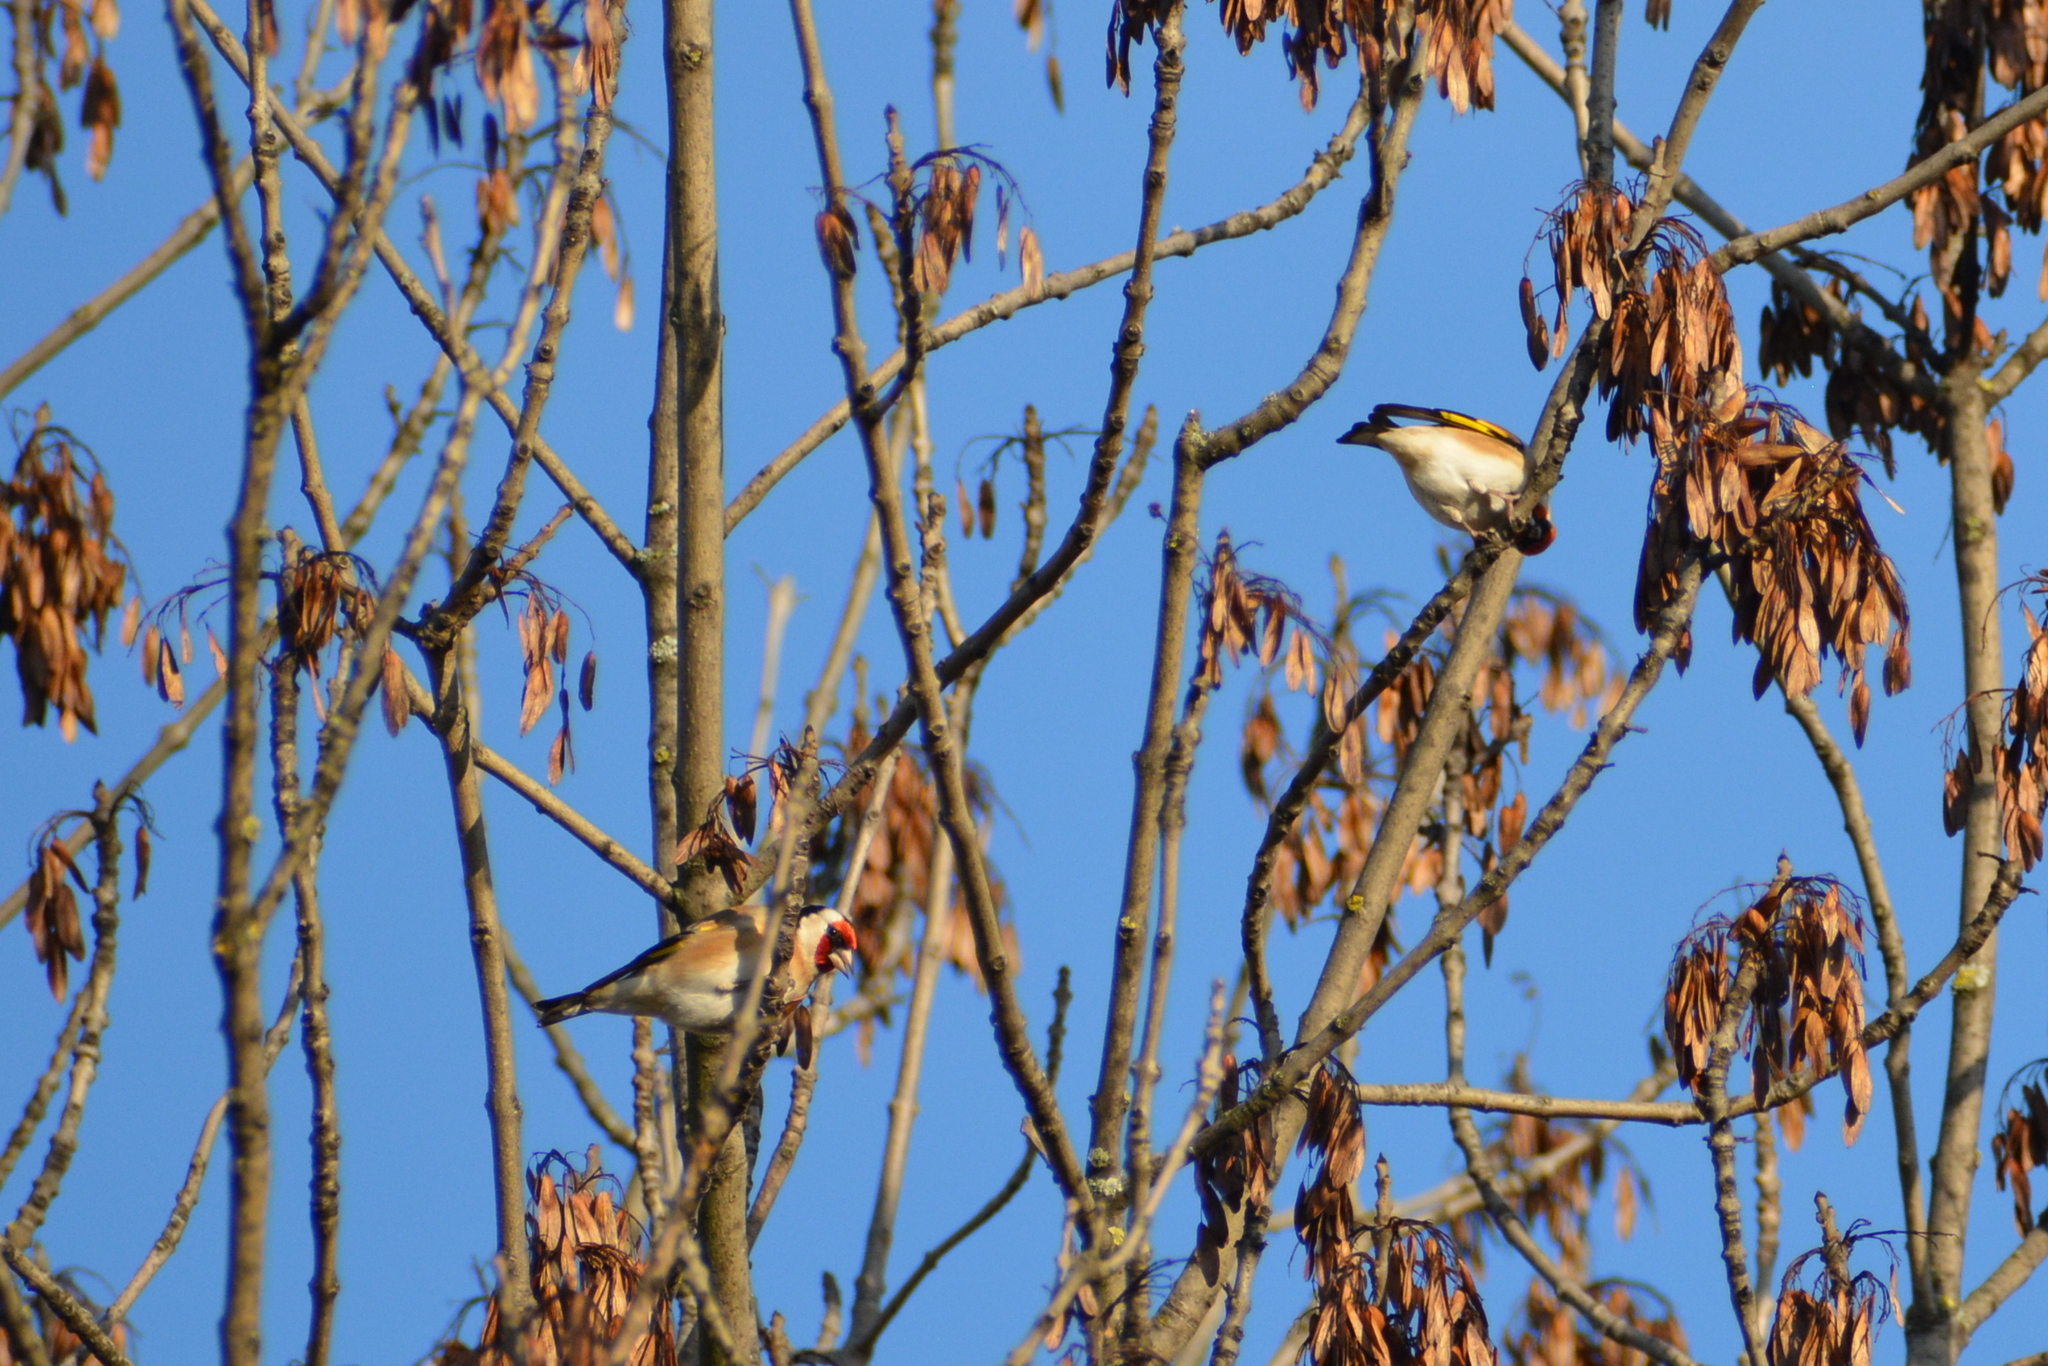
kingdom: Animalia
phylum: Chordata
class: Aves
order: Passeriformes
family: Fringillidae
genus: Carduelis
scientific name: Carduelis carduelis
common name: European goldfinch
